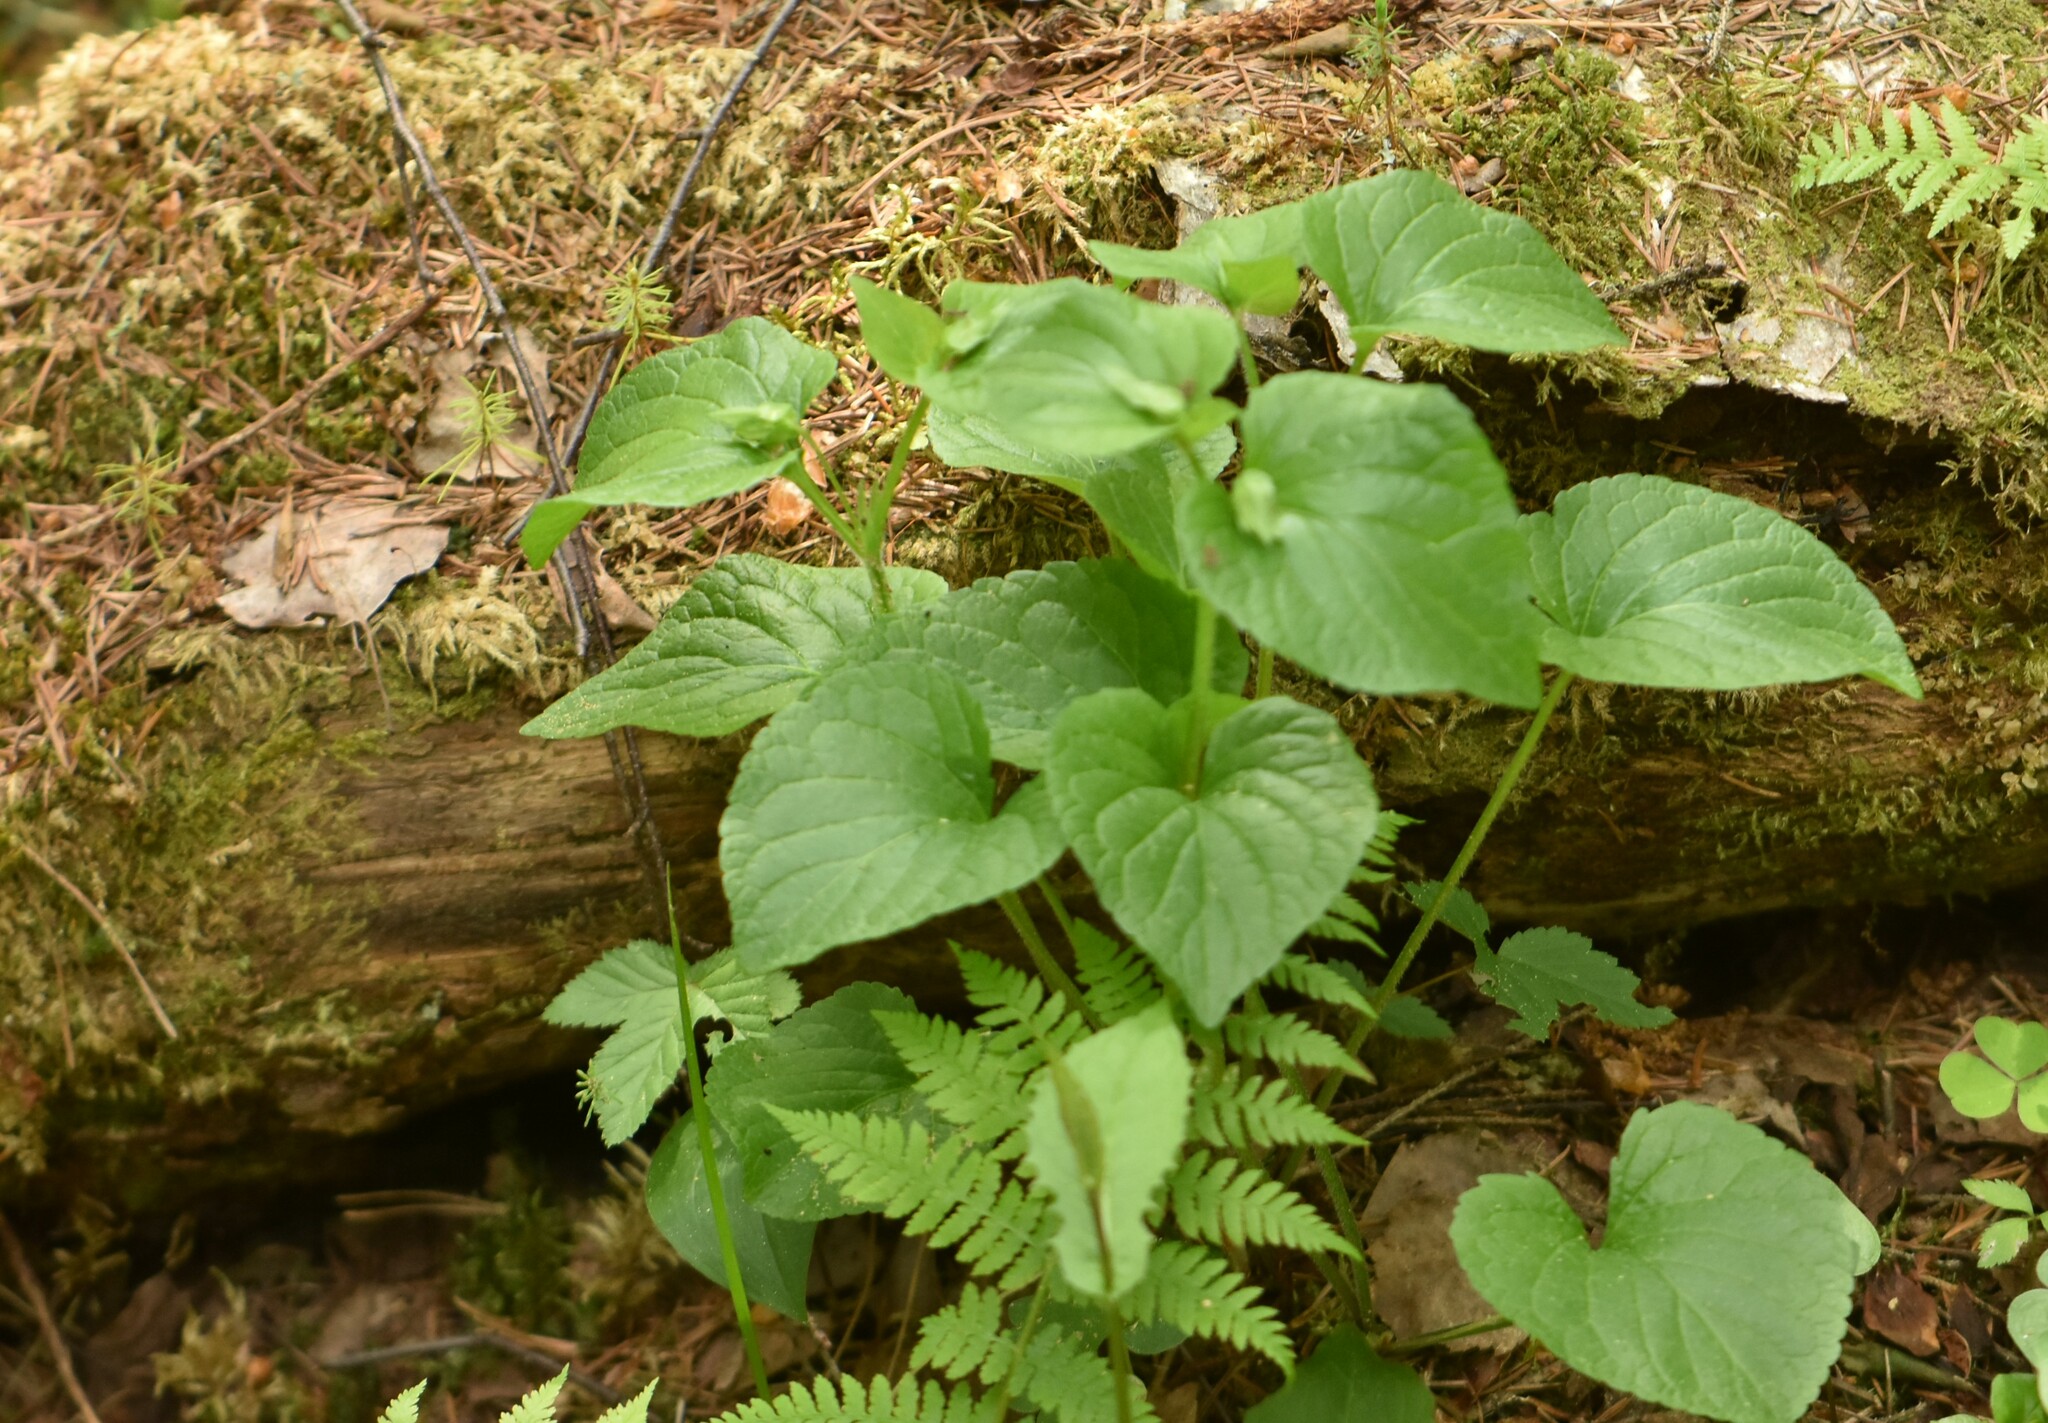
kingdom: Plantae
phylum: Tracheophyta
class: Magnoliopsida
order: Malpighiales
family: Violaceae
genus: Viola
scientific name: Viola mirabilis
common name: Wonder violet
